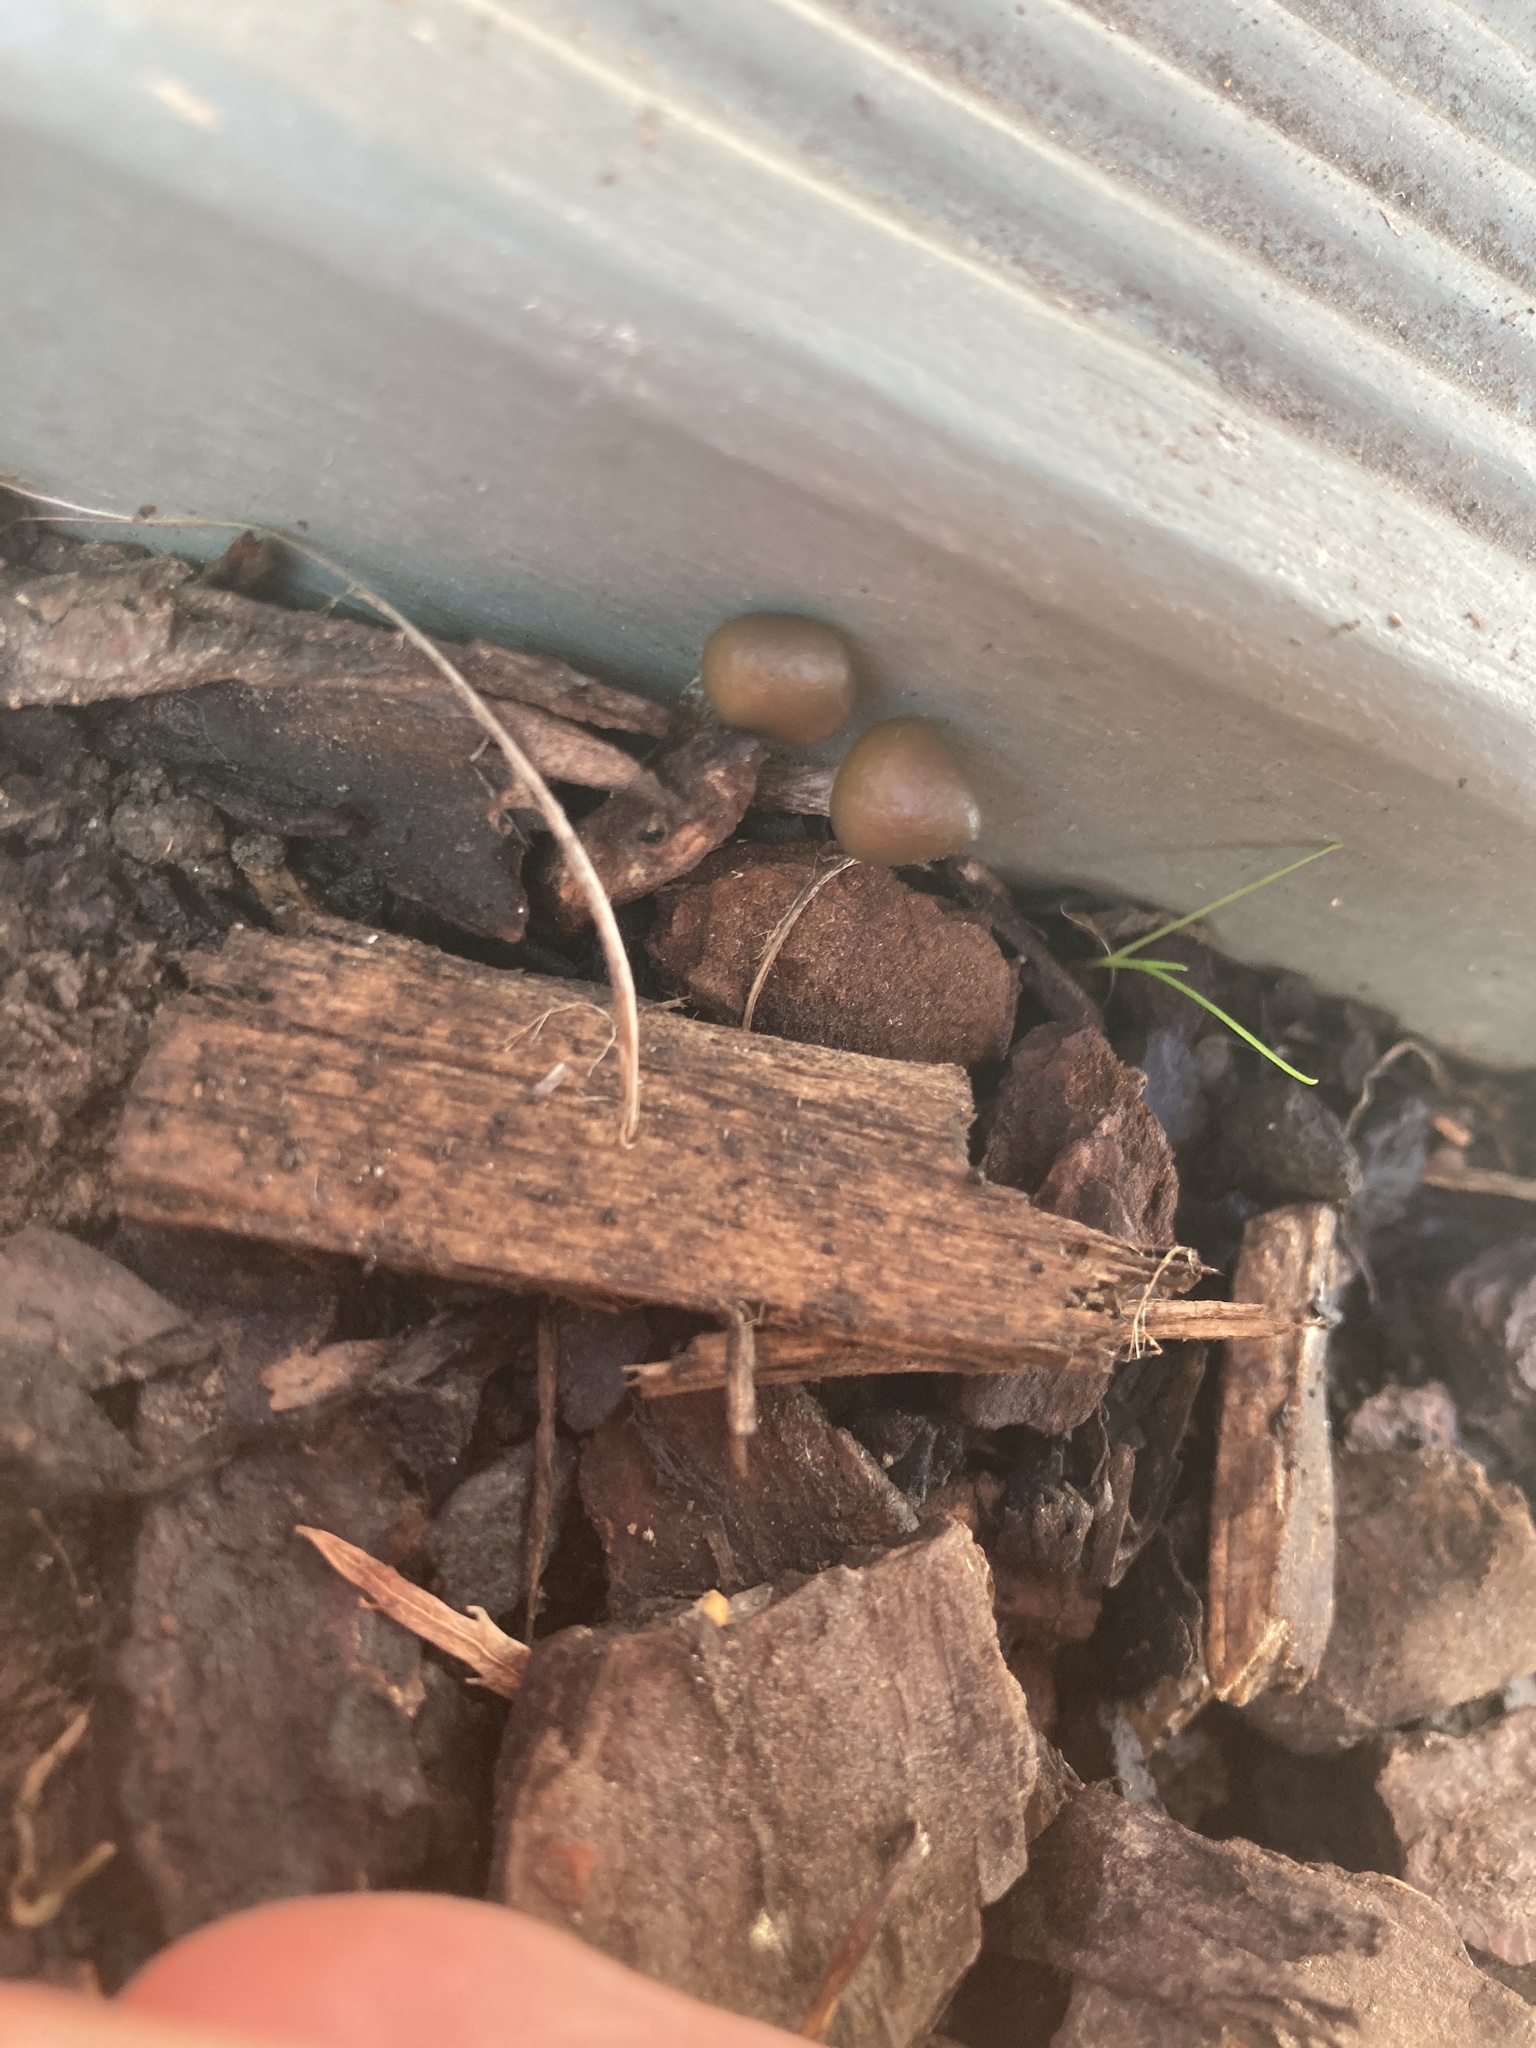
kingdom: Fungi
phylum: Basidiomycota
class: Agaricomycetes
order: Agaricales
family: Hymenogastraceae
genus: Psilocybe
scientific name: Psilocybe angulospora
